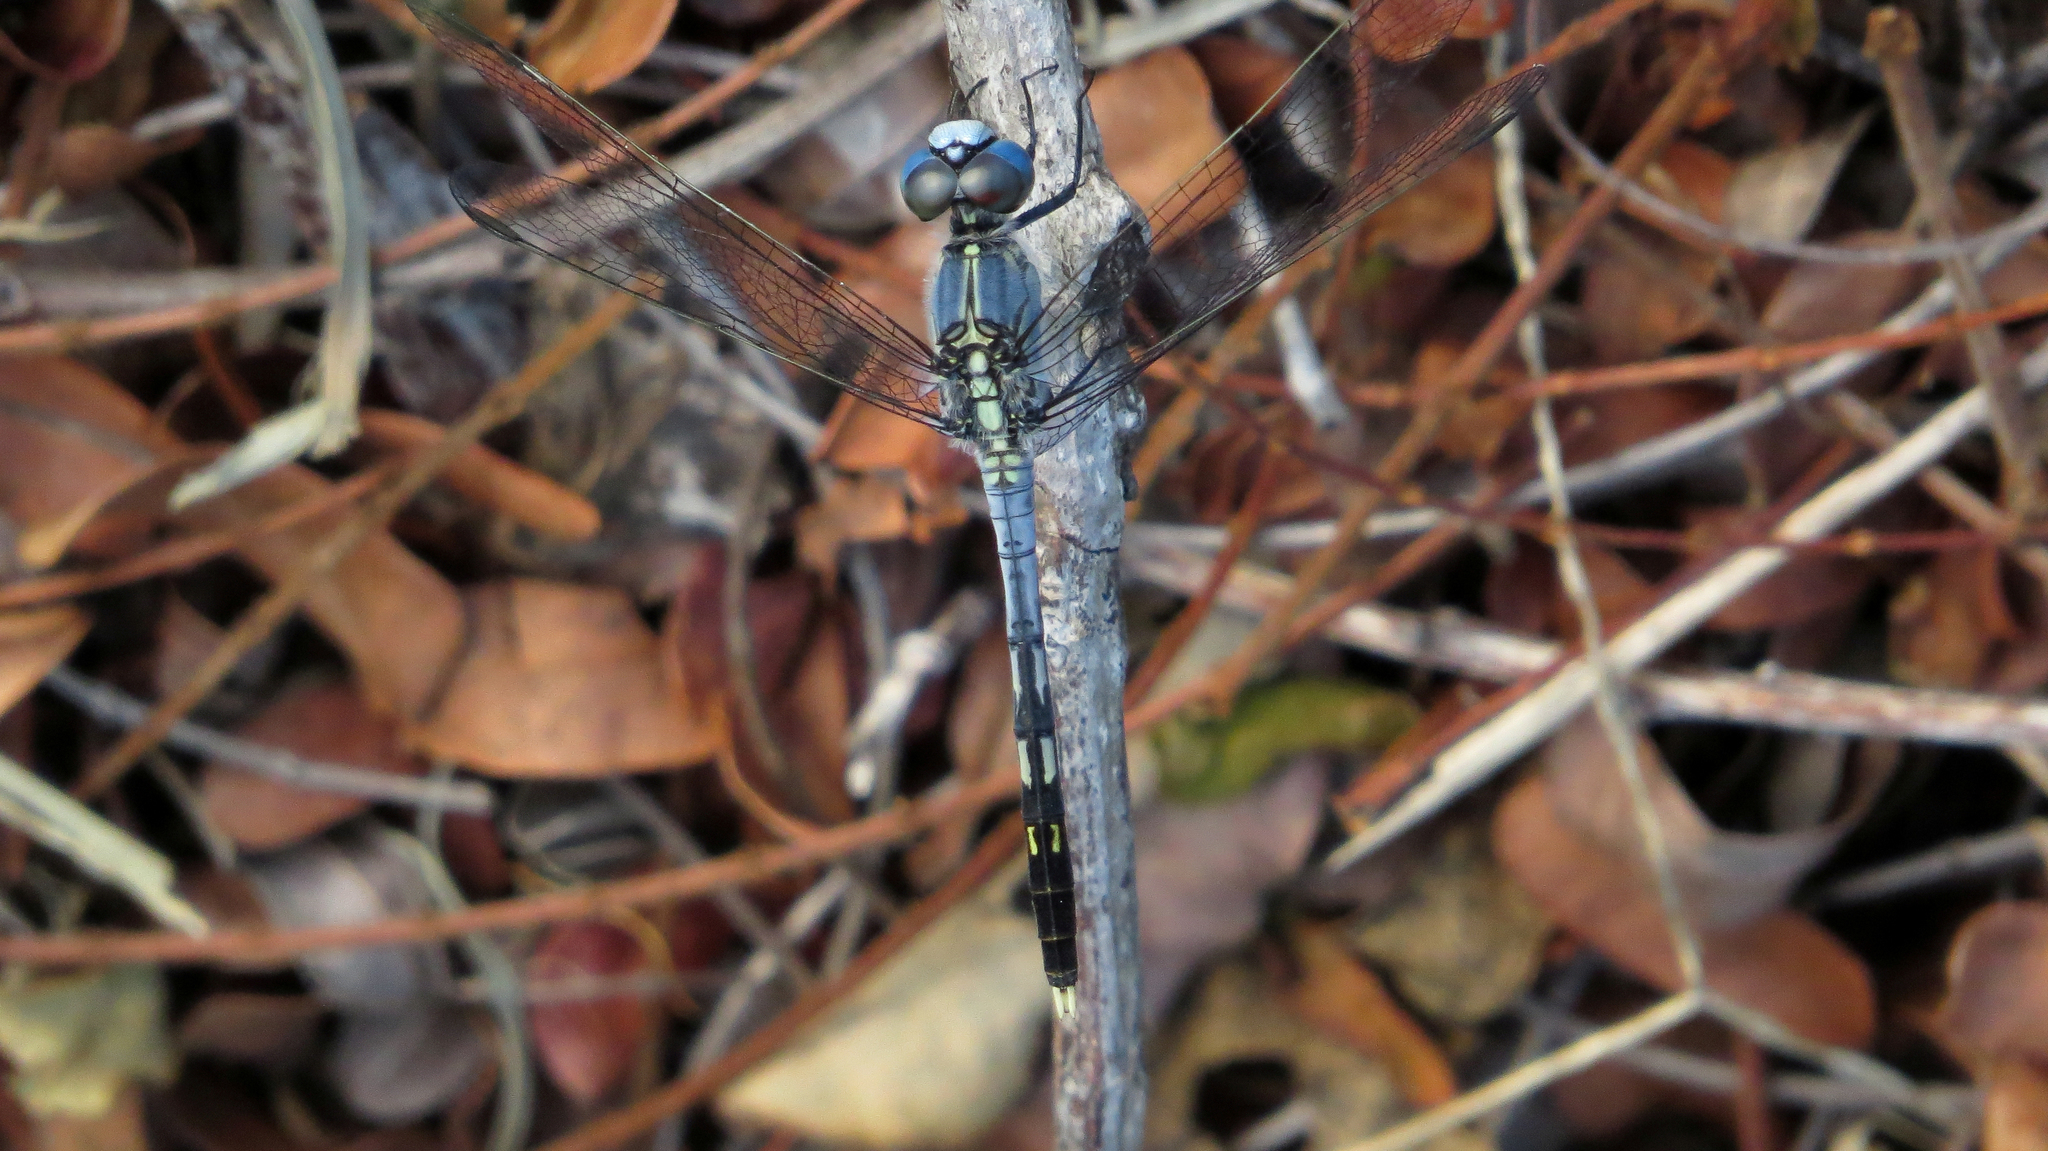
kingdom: Animalia
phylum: Arthropoda
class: Insecta
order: Odonata
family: Libellulidae
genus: Diplacodes
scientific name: Diplacodes trivialis
